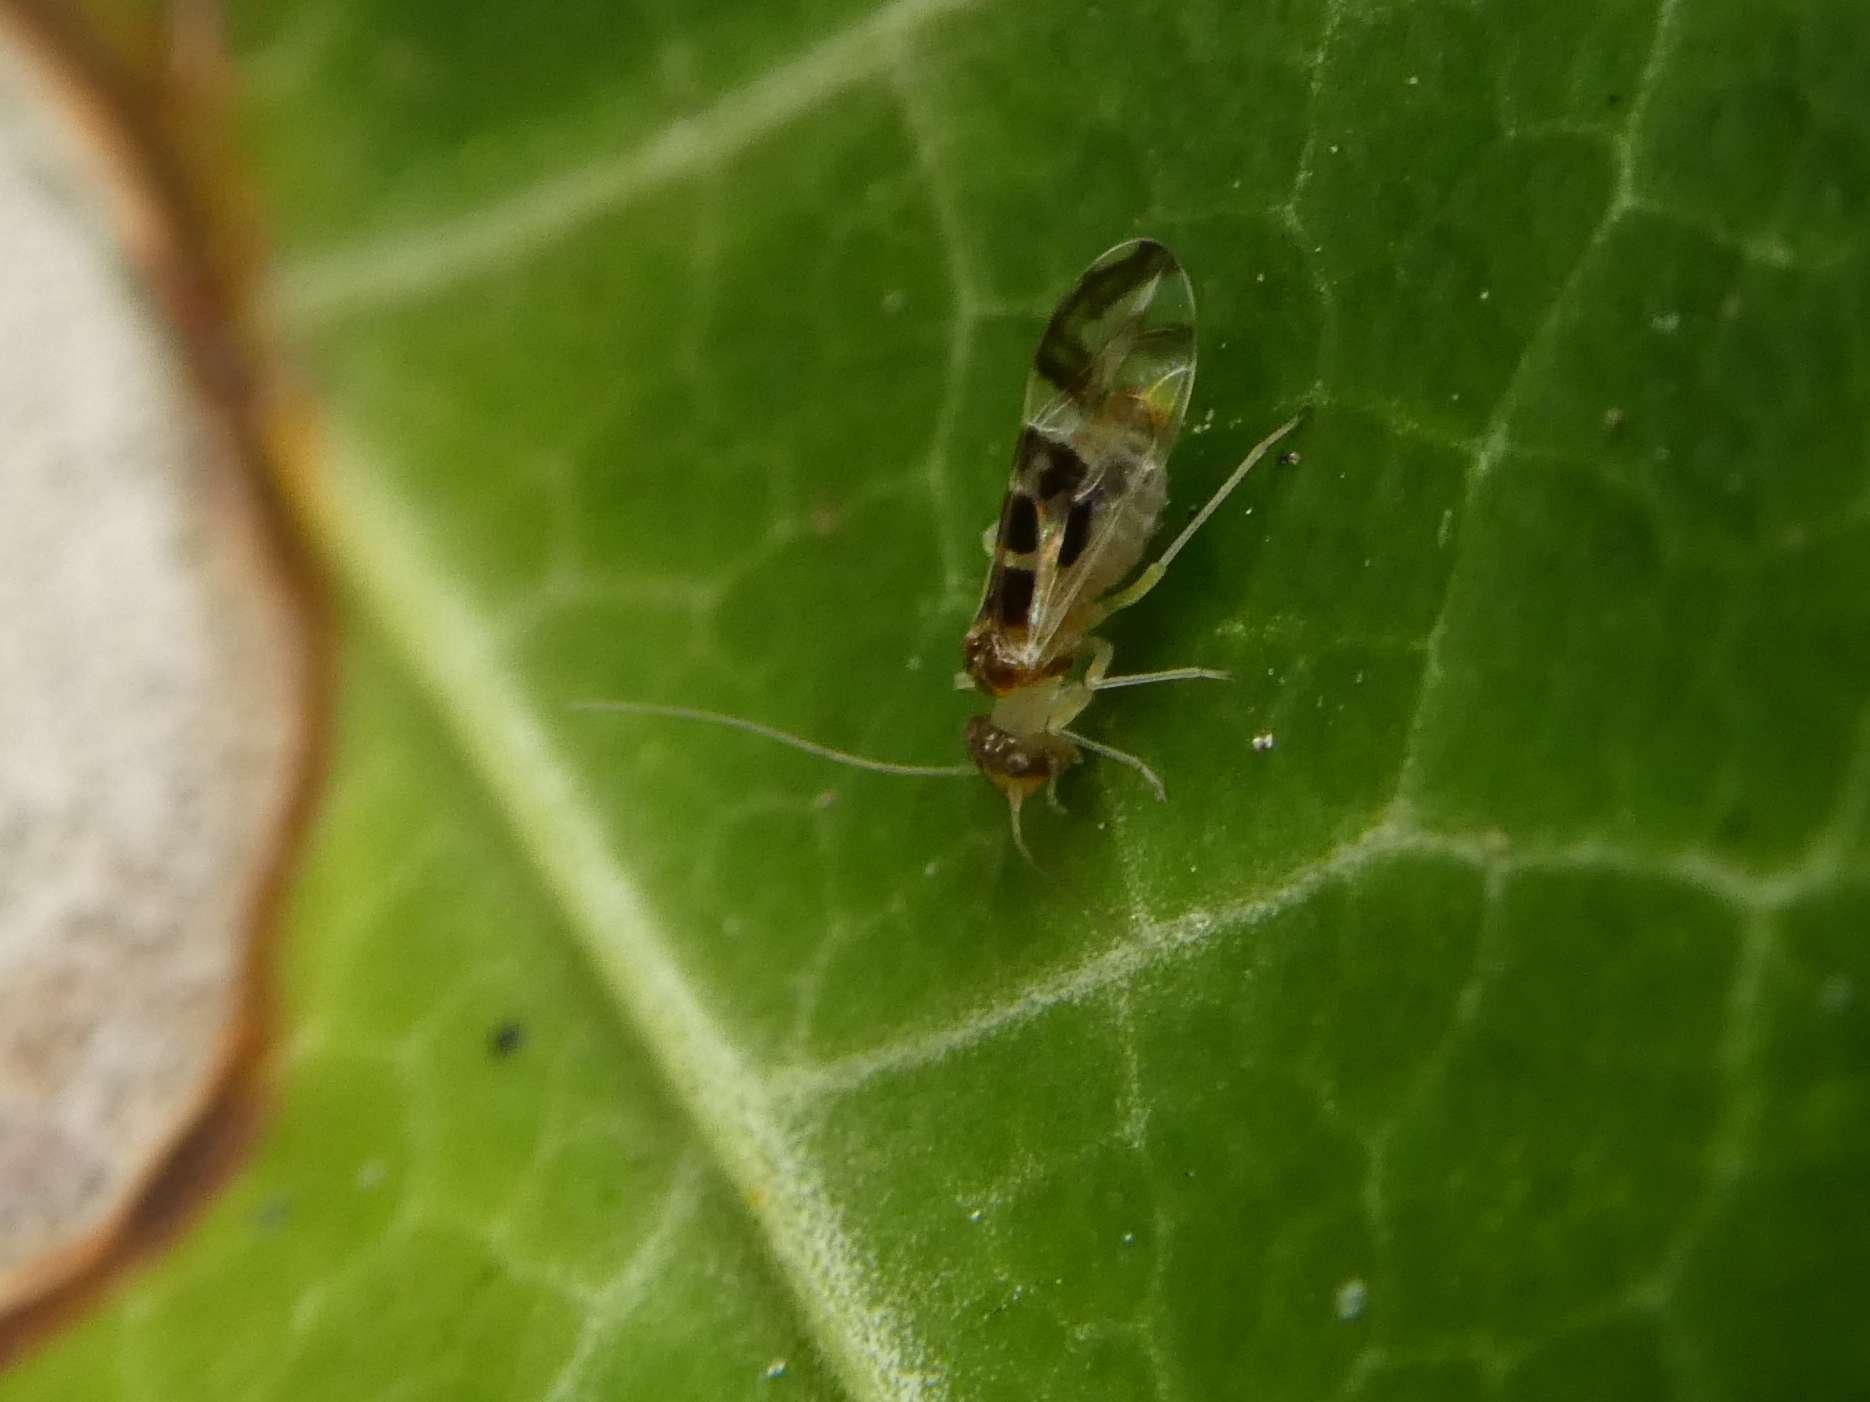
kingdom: Animalia
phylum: Arthropoda
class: Insecta
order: Psocodea
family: Stenopsocidae
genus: Graphopsocus
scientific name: Graphopsocus cruciatus
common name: Lizard bark louse
